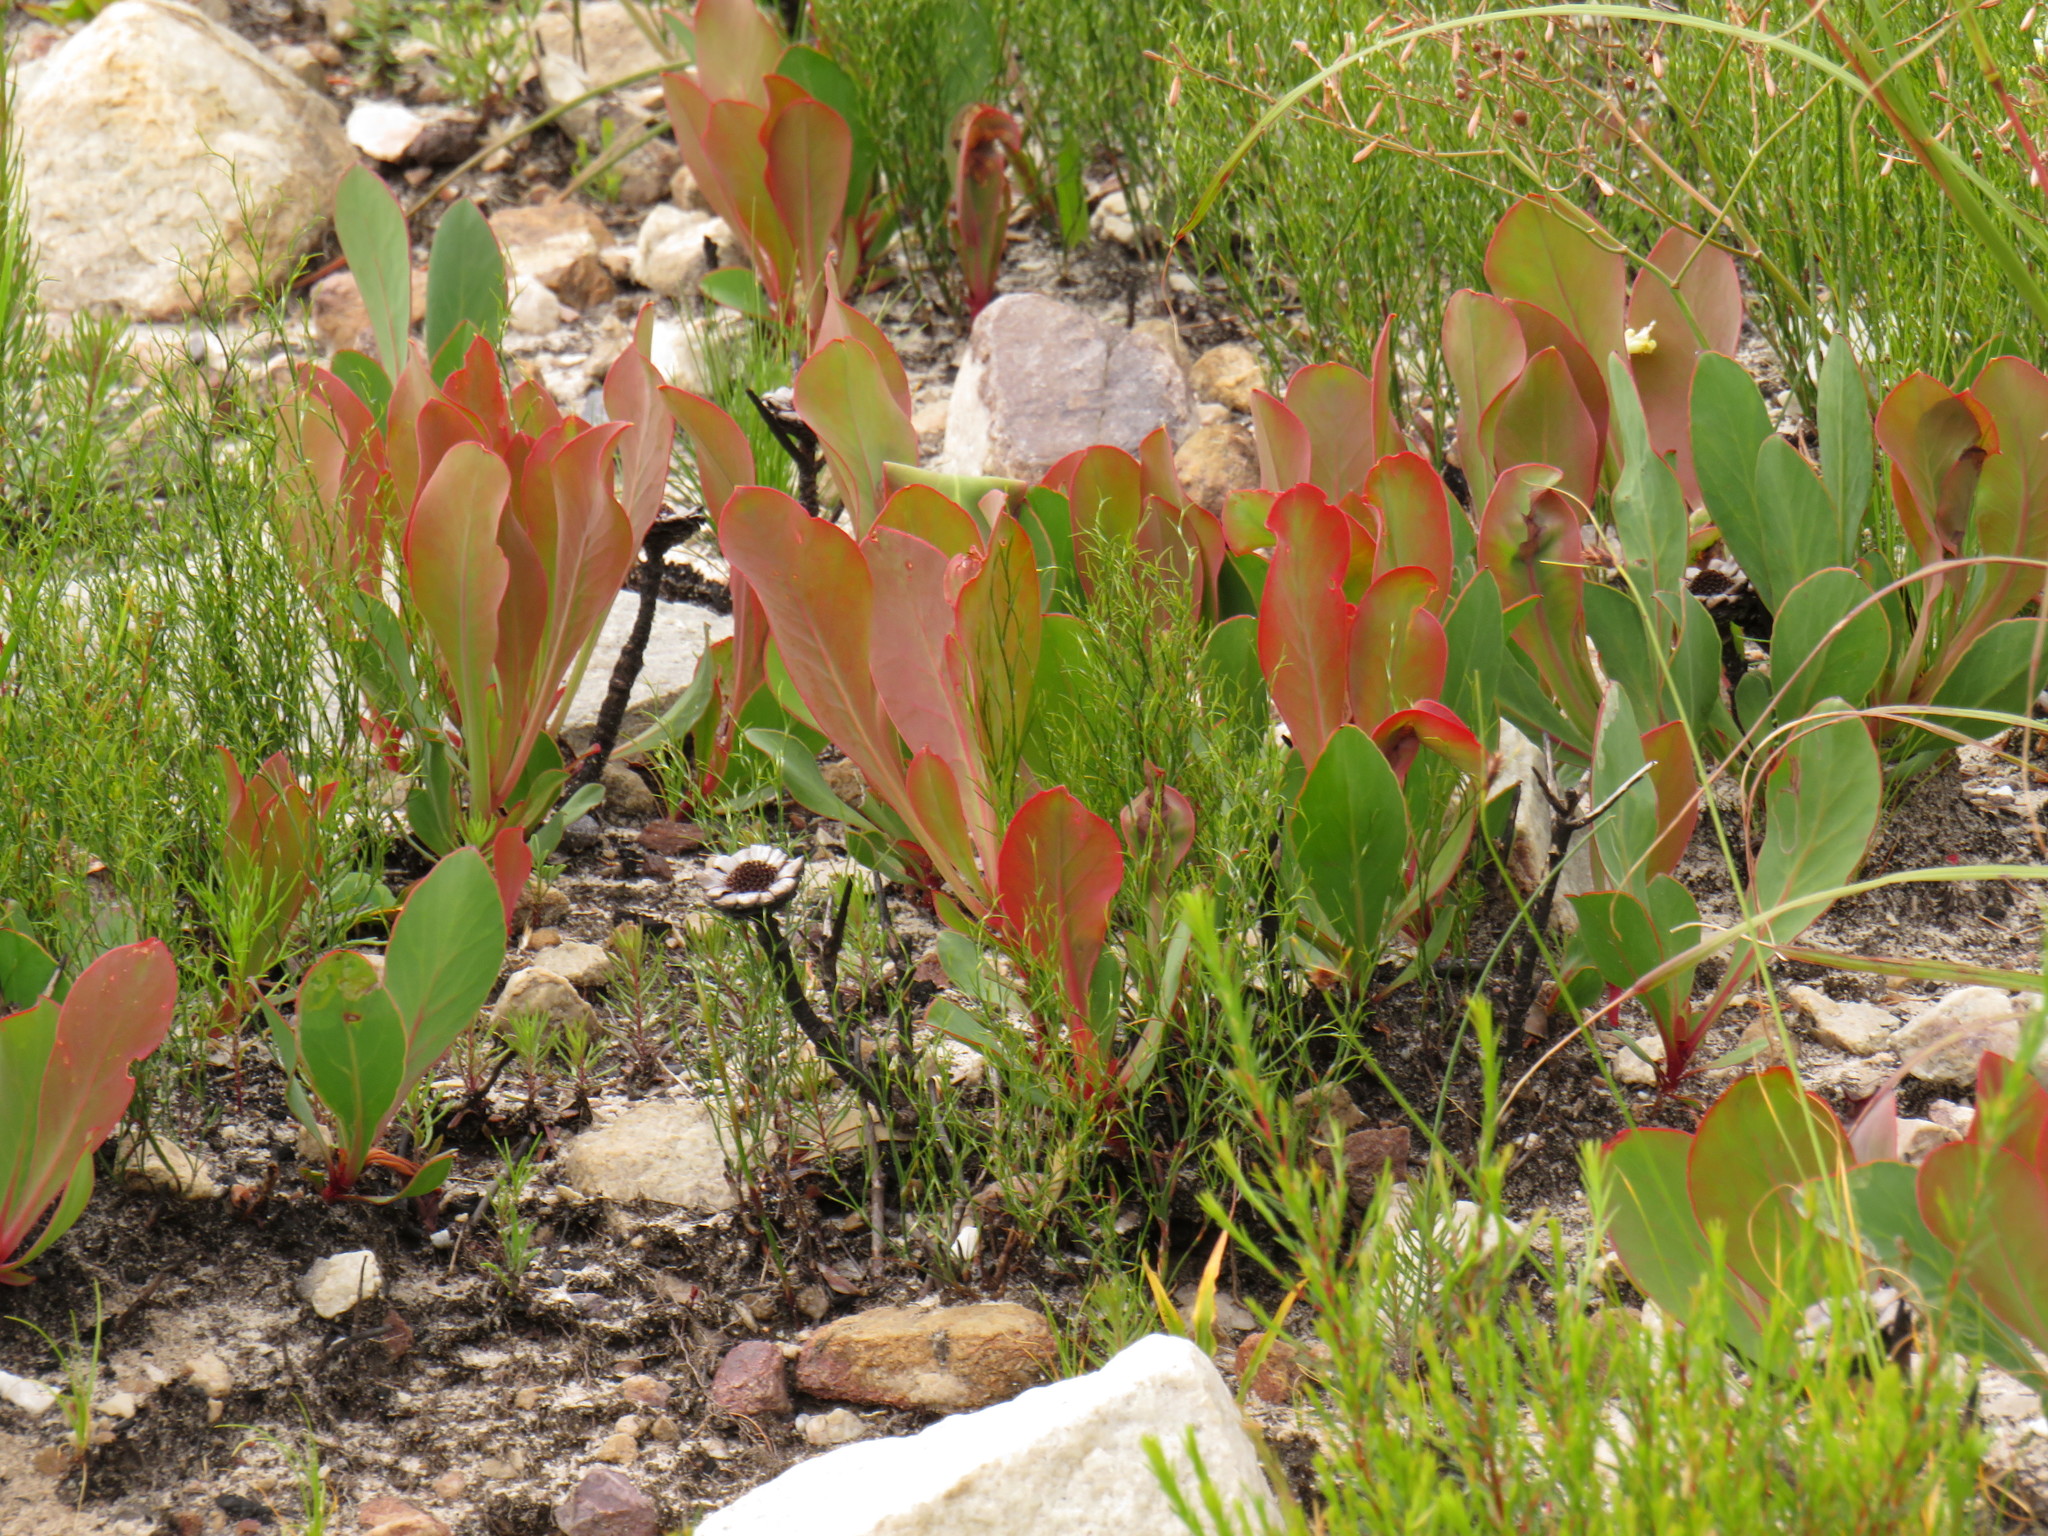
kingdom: Plantae
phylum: Tracheophyta
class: Magnoliopsida
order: Proteales
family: Proteaceae
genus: Protea
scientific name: Protea acaulos
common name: Common ground sugarbush
